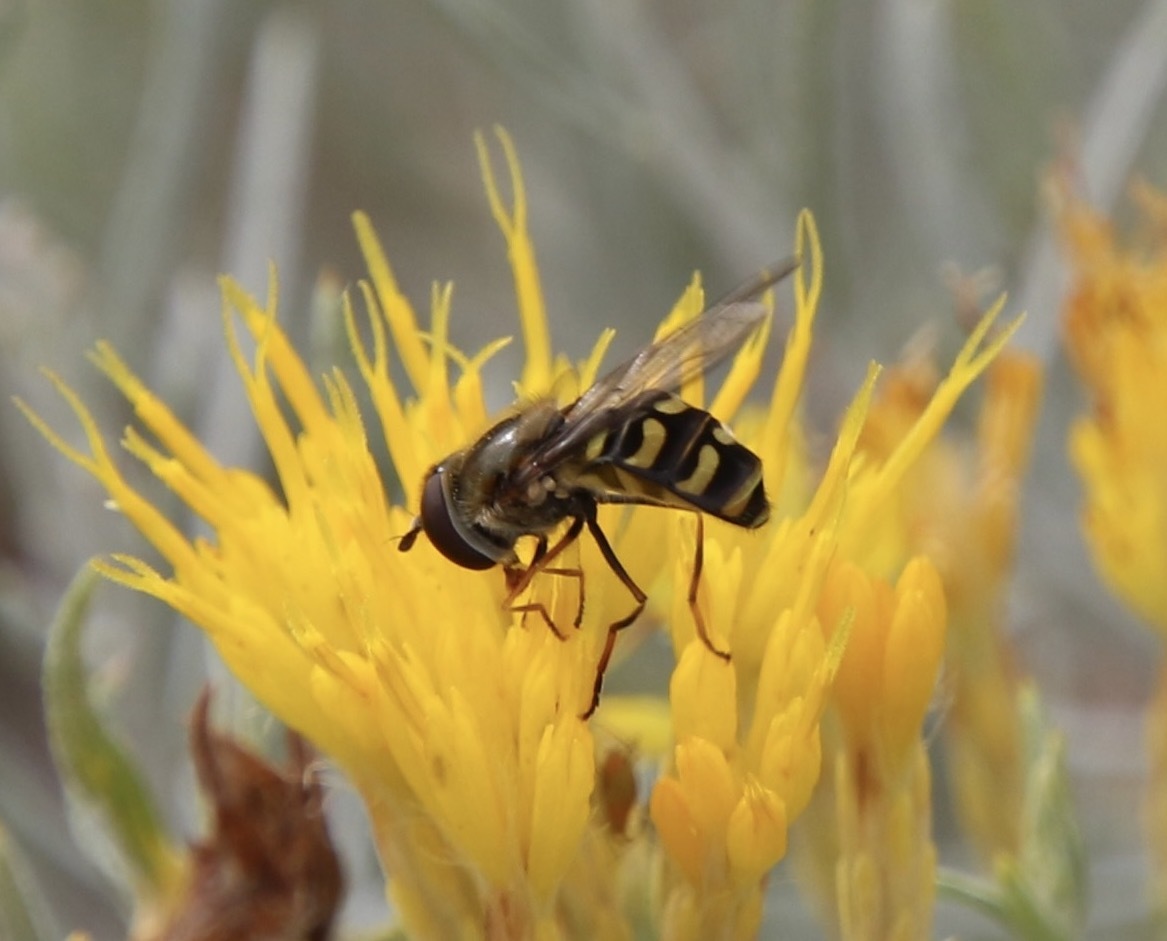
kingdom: Animalia
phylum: Arthropoda
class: Insecta
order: Diptera
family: Syrphidae
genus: Lapposyrphus
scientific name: Lapposyrphus lapponicus
